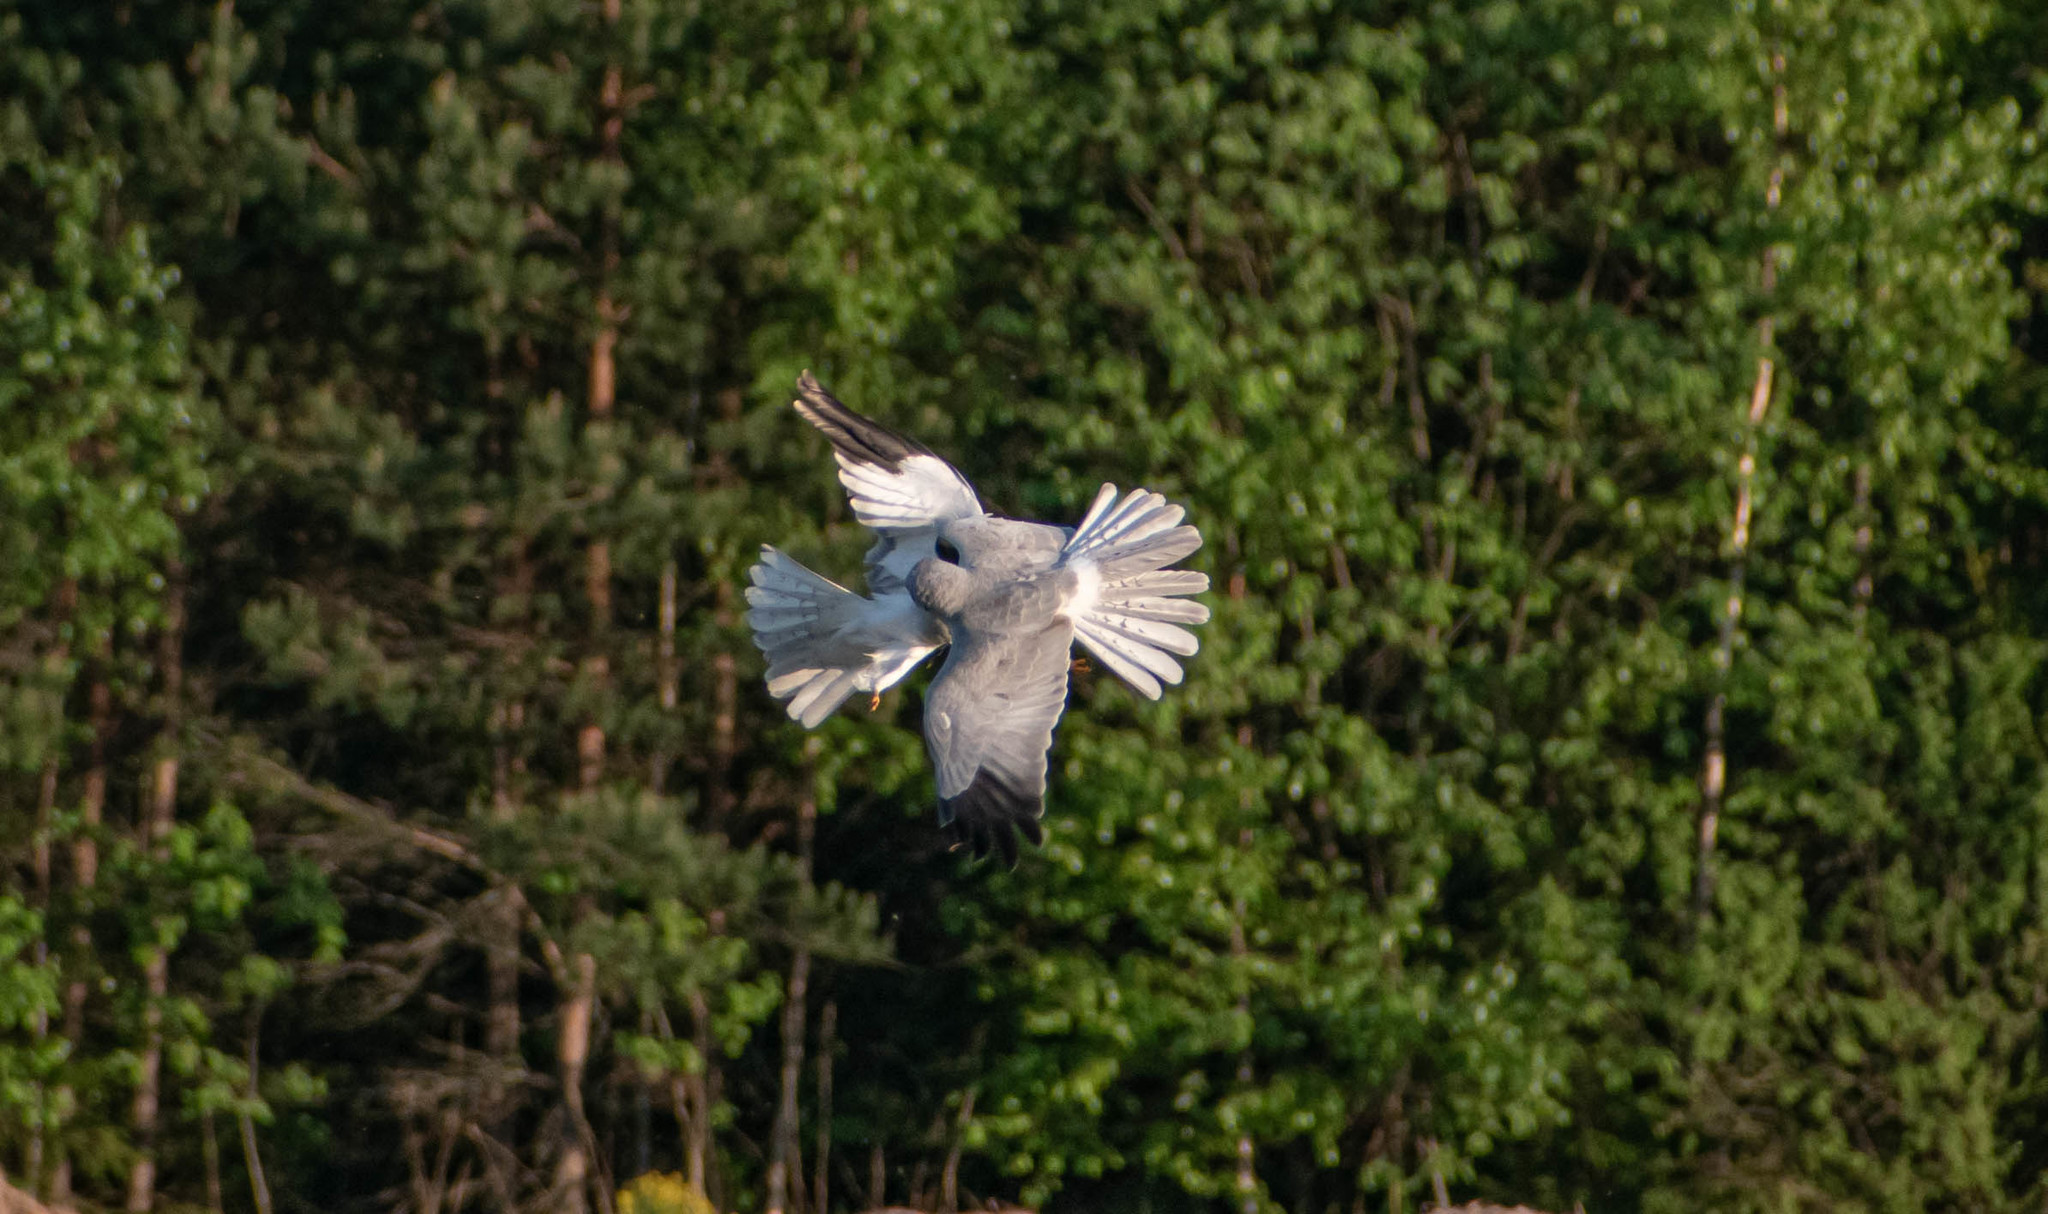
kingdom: Animalia
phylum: Chordata
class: Aves
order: Accipitriformes
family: Accipitridae
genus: Circus
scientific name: Circus cyaneus
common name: Hen harrier
